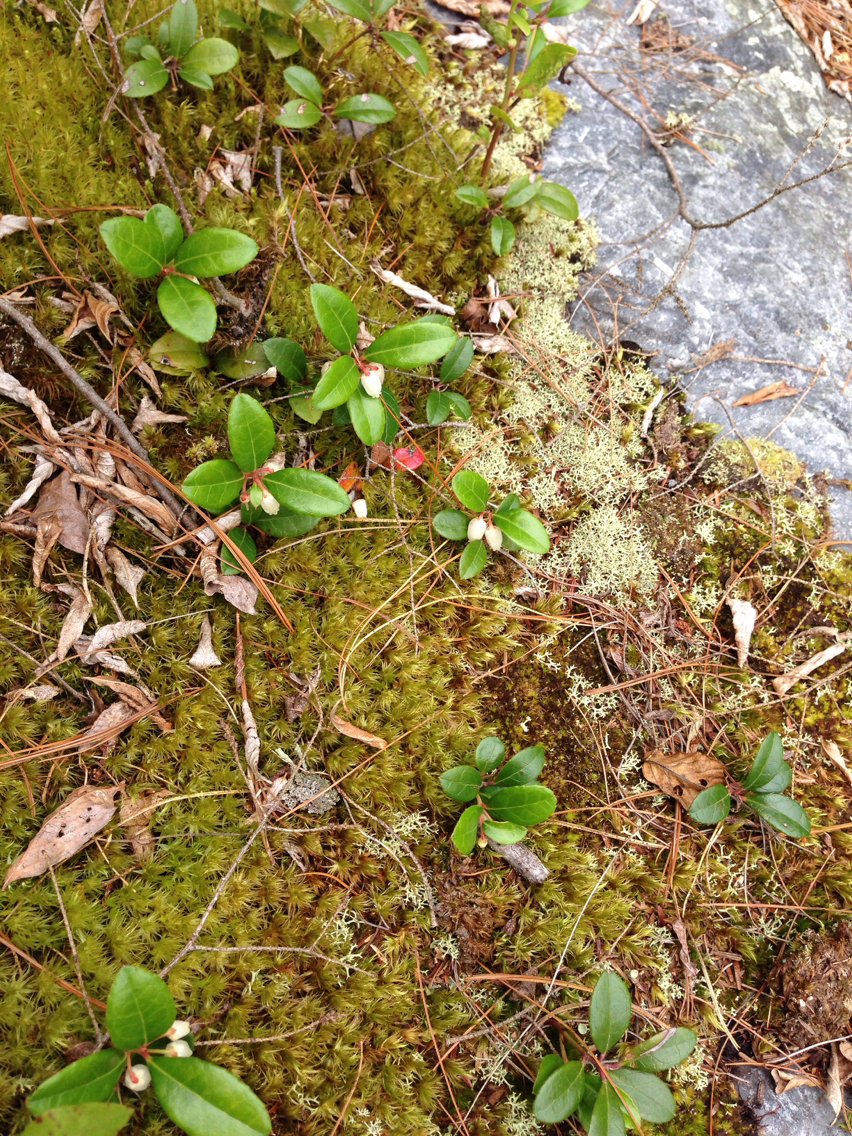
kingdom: Plantae
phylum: Tracheophyta
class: Magnoliopsida
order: Ericales
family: Ericaceae
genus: Gaultheria
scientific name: Gaultheria procumbens
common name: Checkerberry
